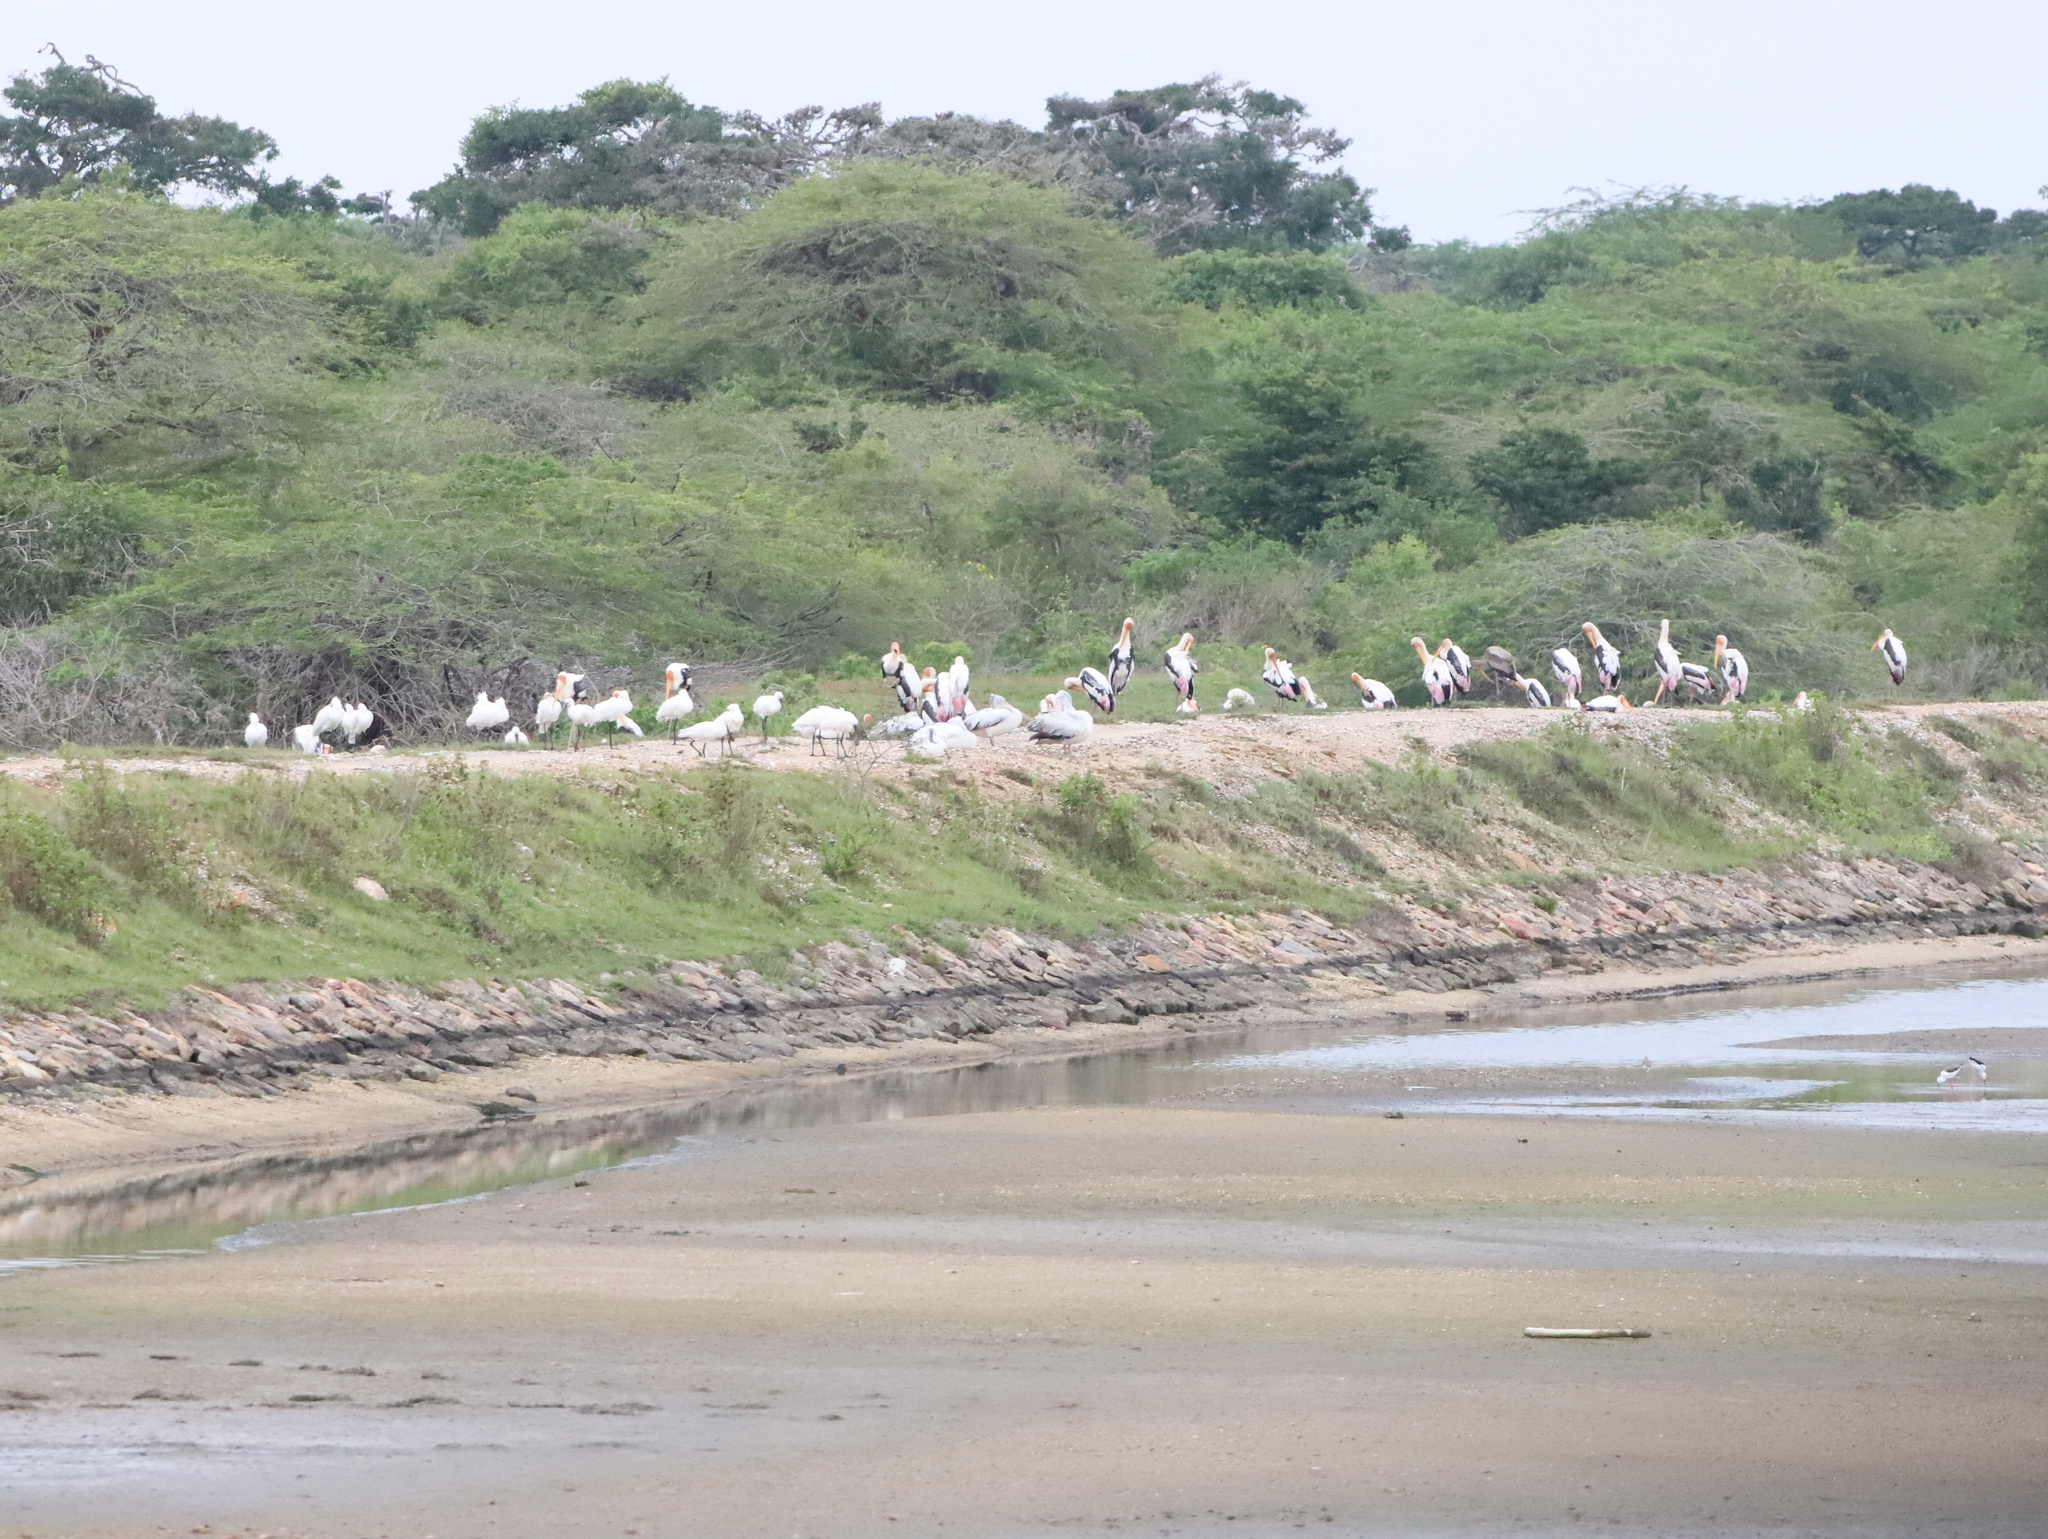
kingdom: Animalia
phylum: Chordata
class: Aves
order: Pelecaniformes
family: Threskiornithidae
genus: Platalea
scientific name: Platalea leucorodia
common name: Eurasian spoonbill
